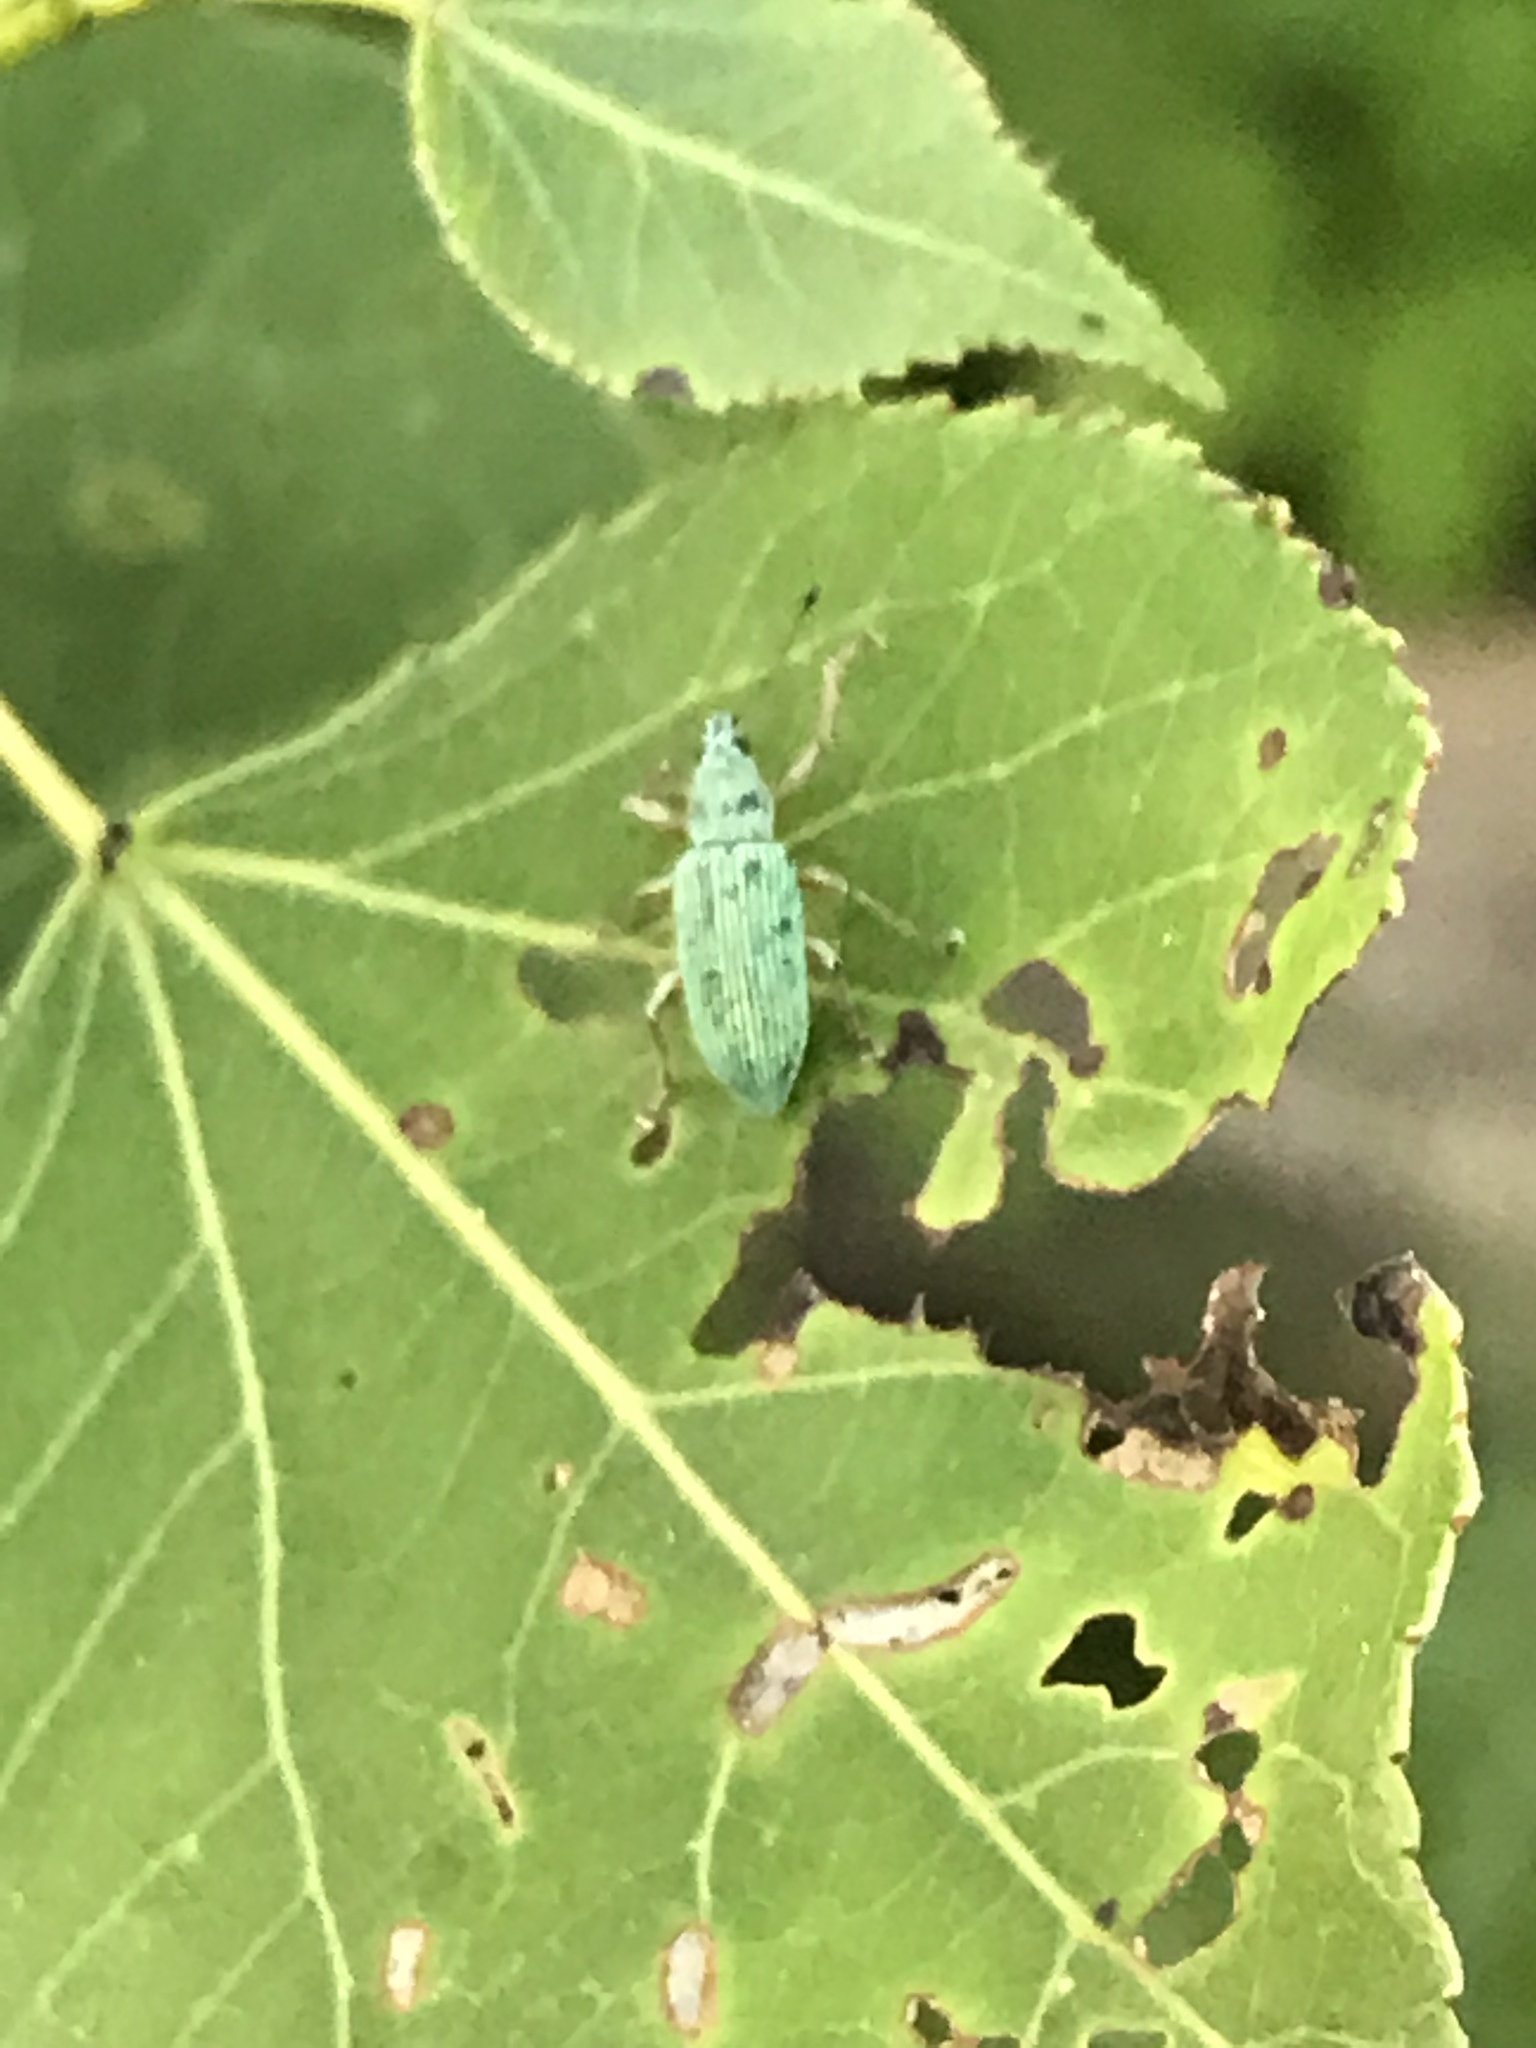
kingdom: Animalia
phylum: Arthropoda
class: Insecta
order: Coleoptera
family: Curculionidae
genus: Polydrusus
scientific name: Polydrusus formosus
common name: Weevil
